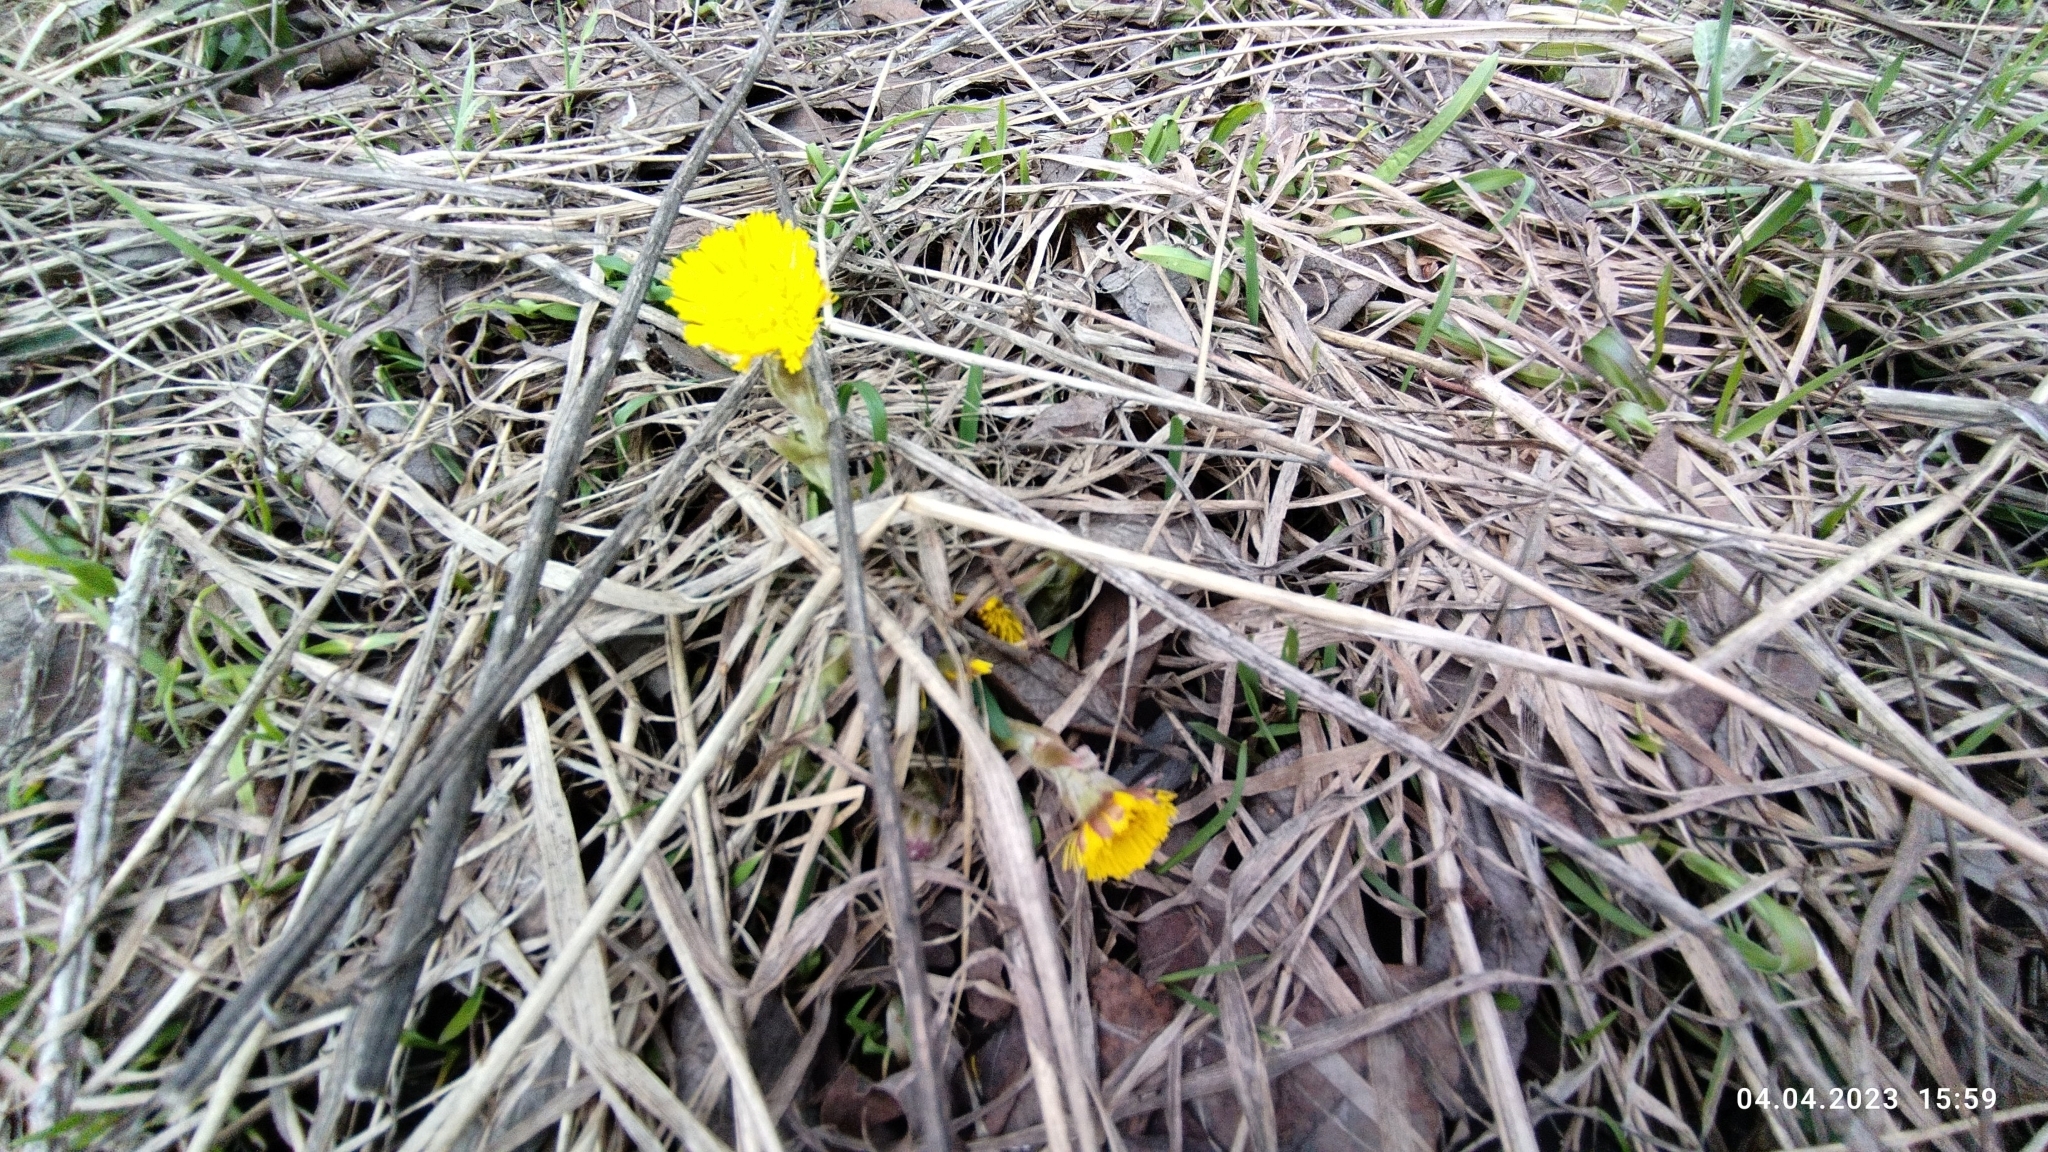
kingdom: Plantae
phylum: Tracheophyta
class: Magnoliopsida
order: Asterales
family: Asteraceae
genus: Tussilago
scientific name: Tussilago farfara
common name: Coltsfoot
